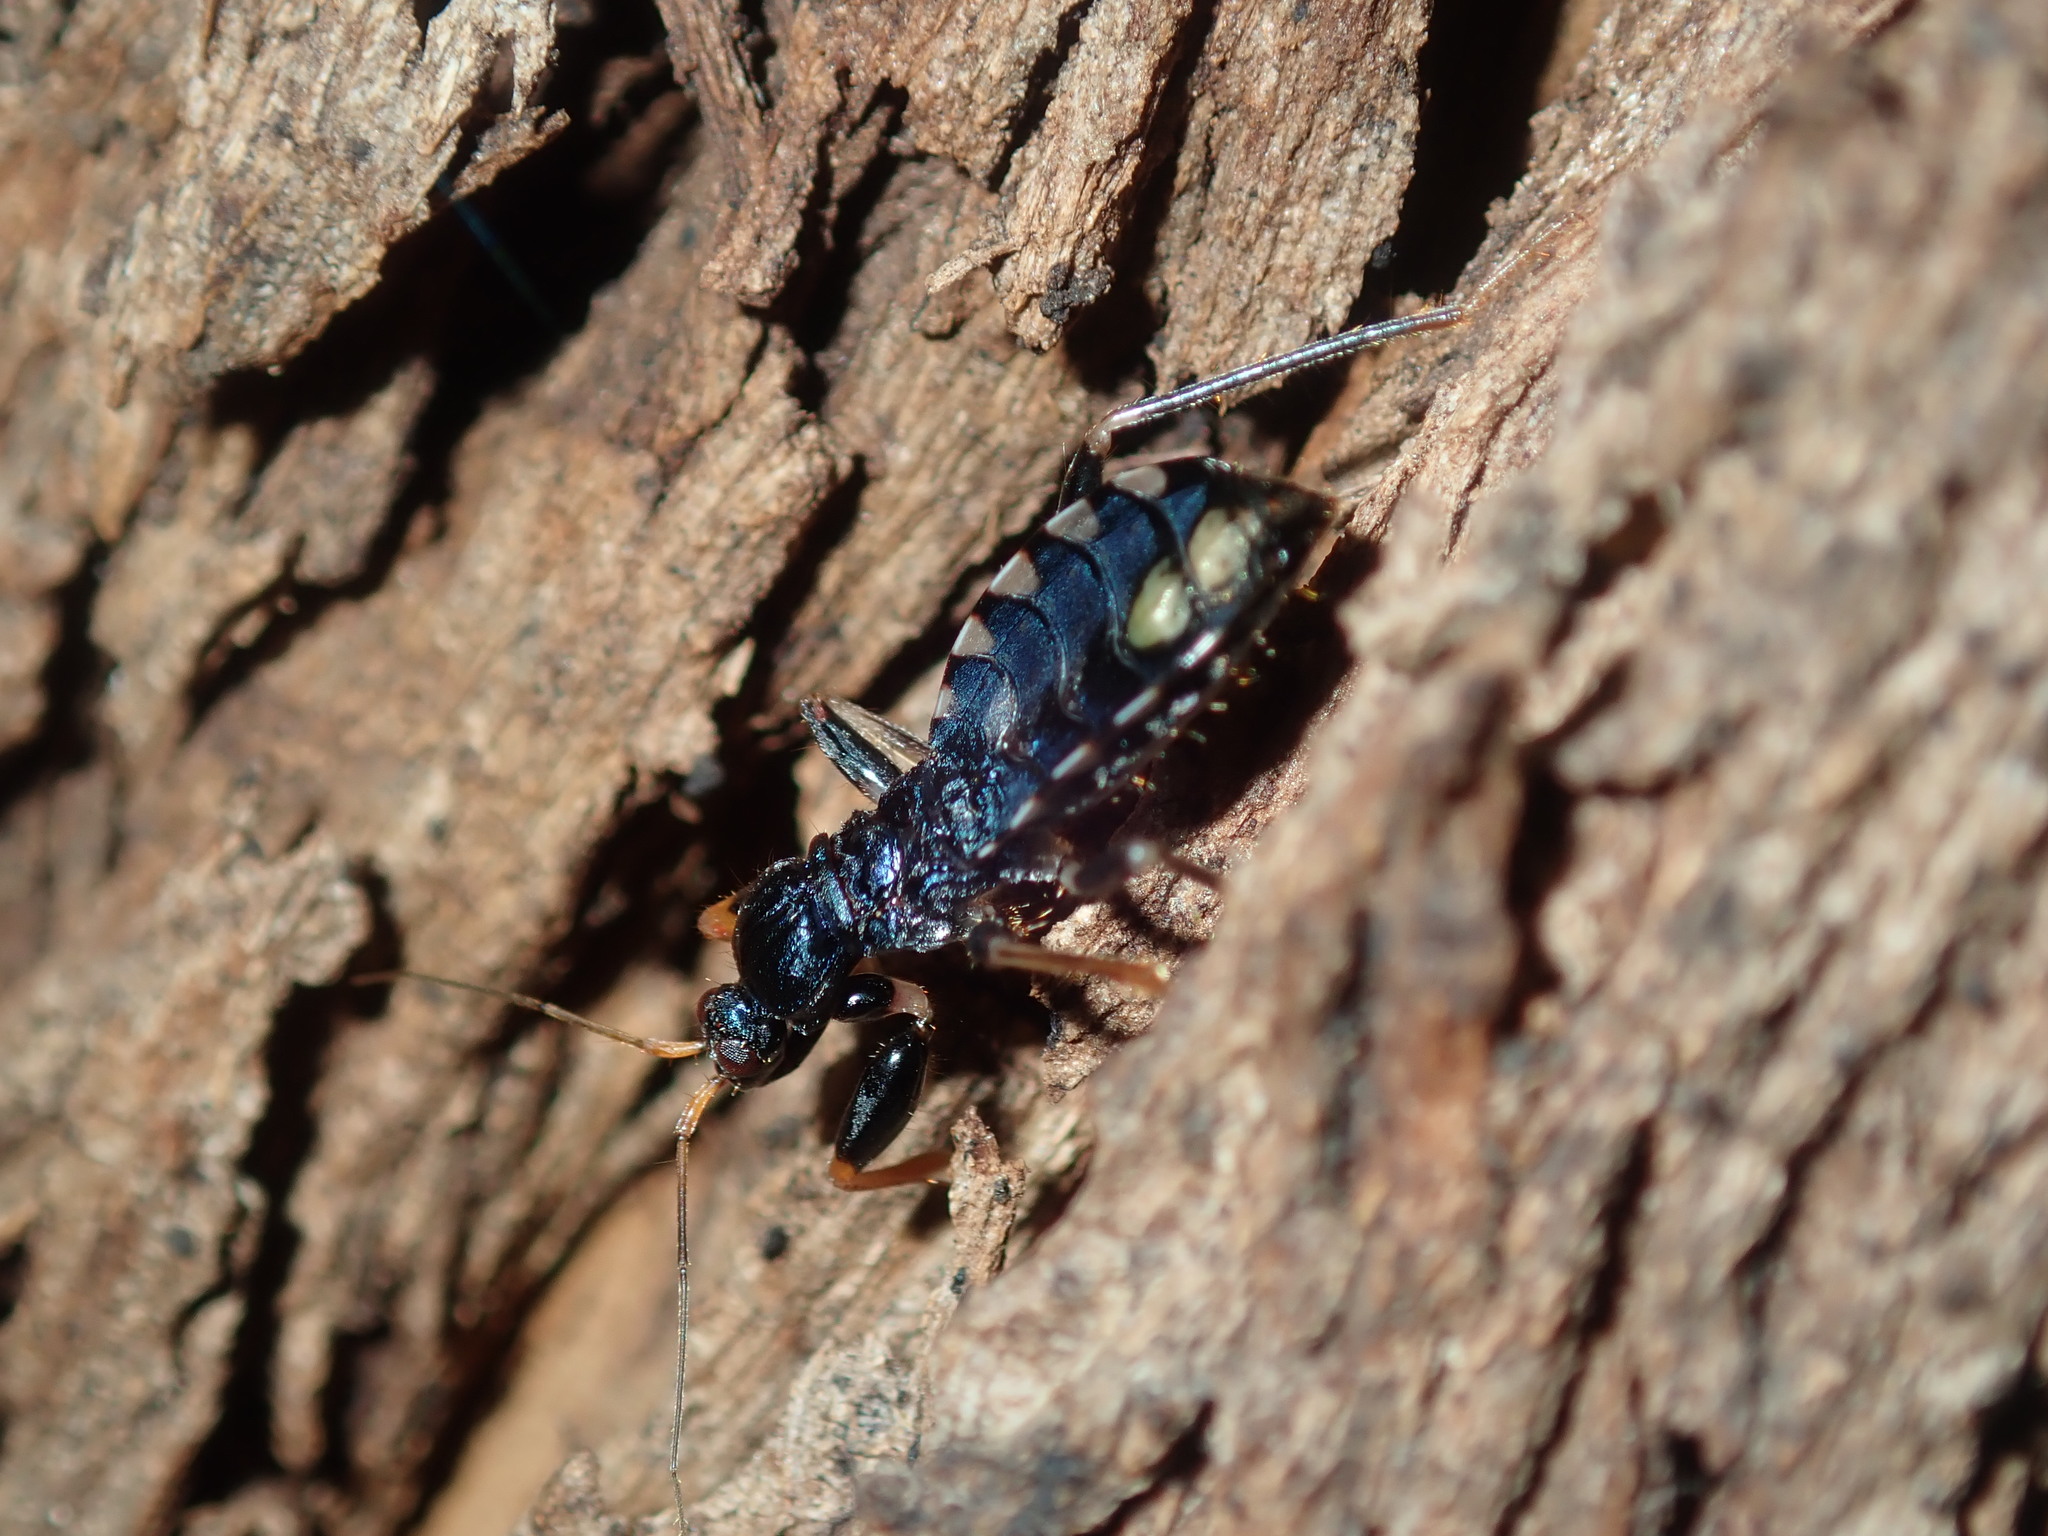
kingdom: Animalia
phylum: Arthropoda
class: Insecta
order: Hemiptera
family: Reduviidae
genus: Ectomocoris
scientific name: Ectomocoris decoratus
